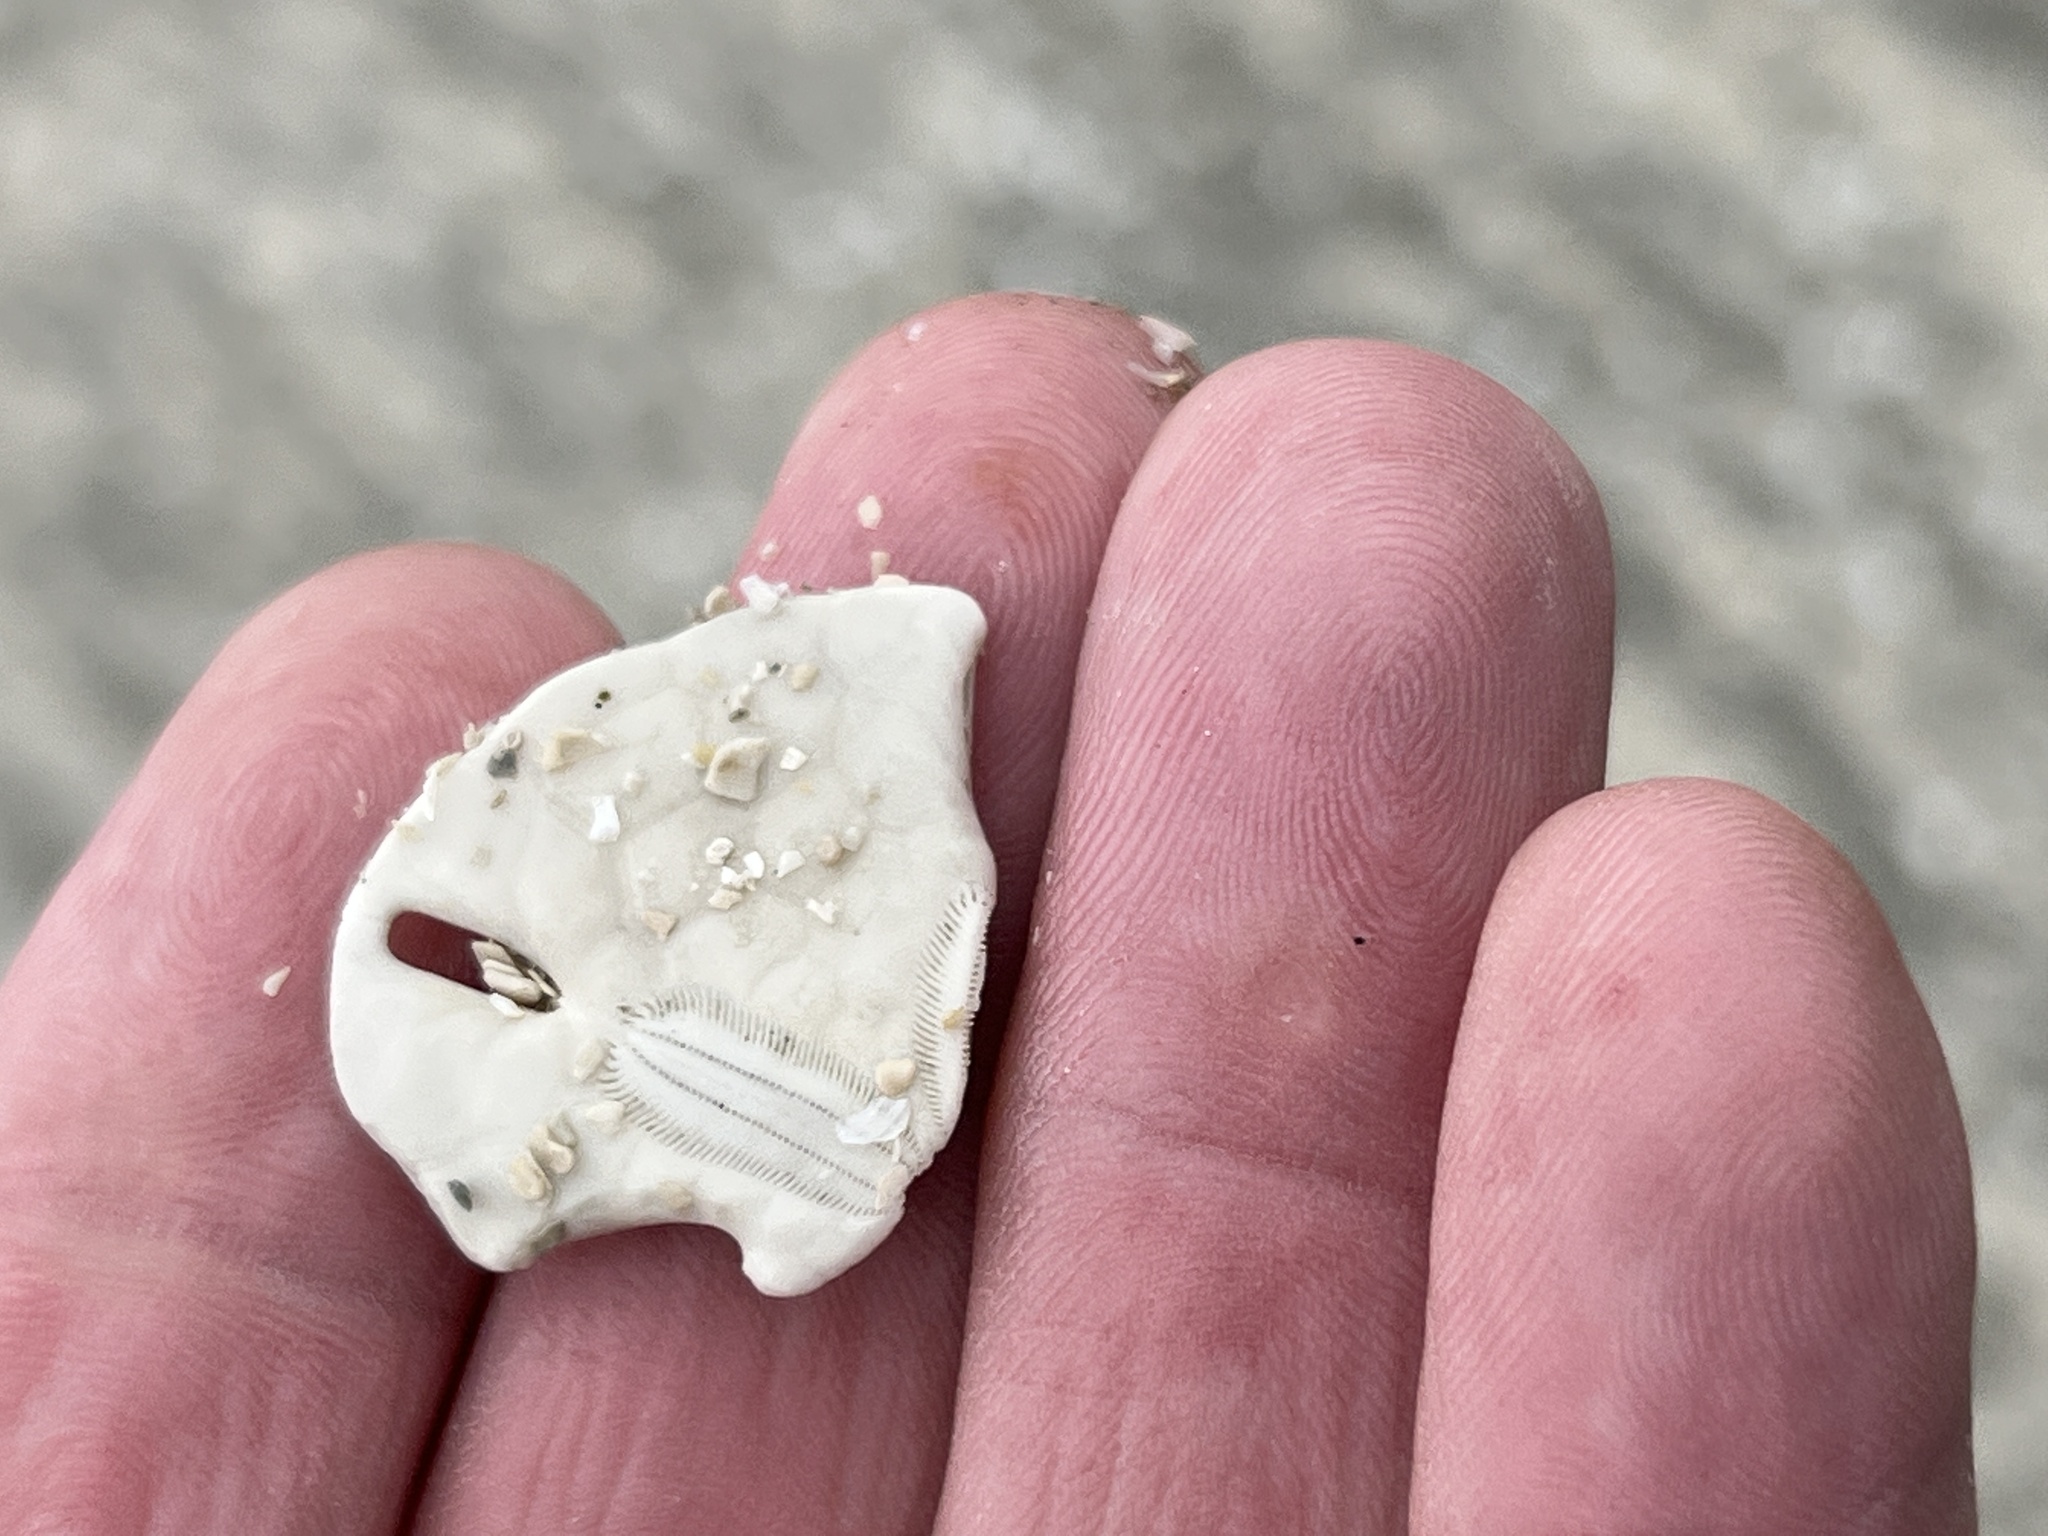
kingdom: Animalia
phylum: Echinodermata
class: Echinoidea
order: Echinolampadacea
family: Mellitidae
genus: Mellita
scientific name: Mellita quinquiesperforata
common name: Sand dollar
